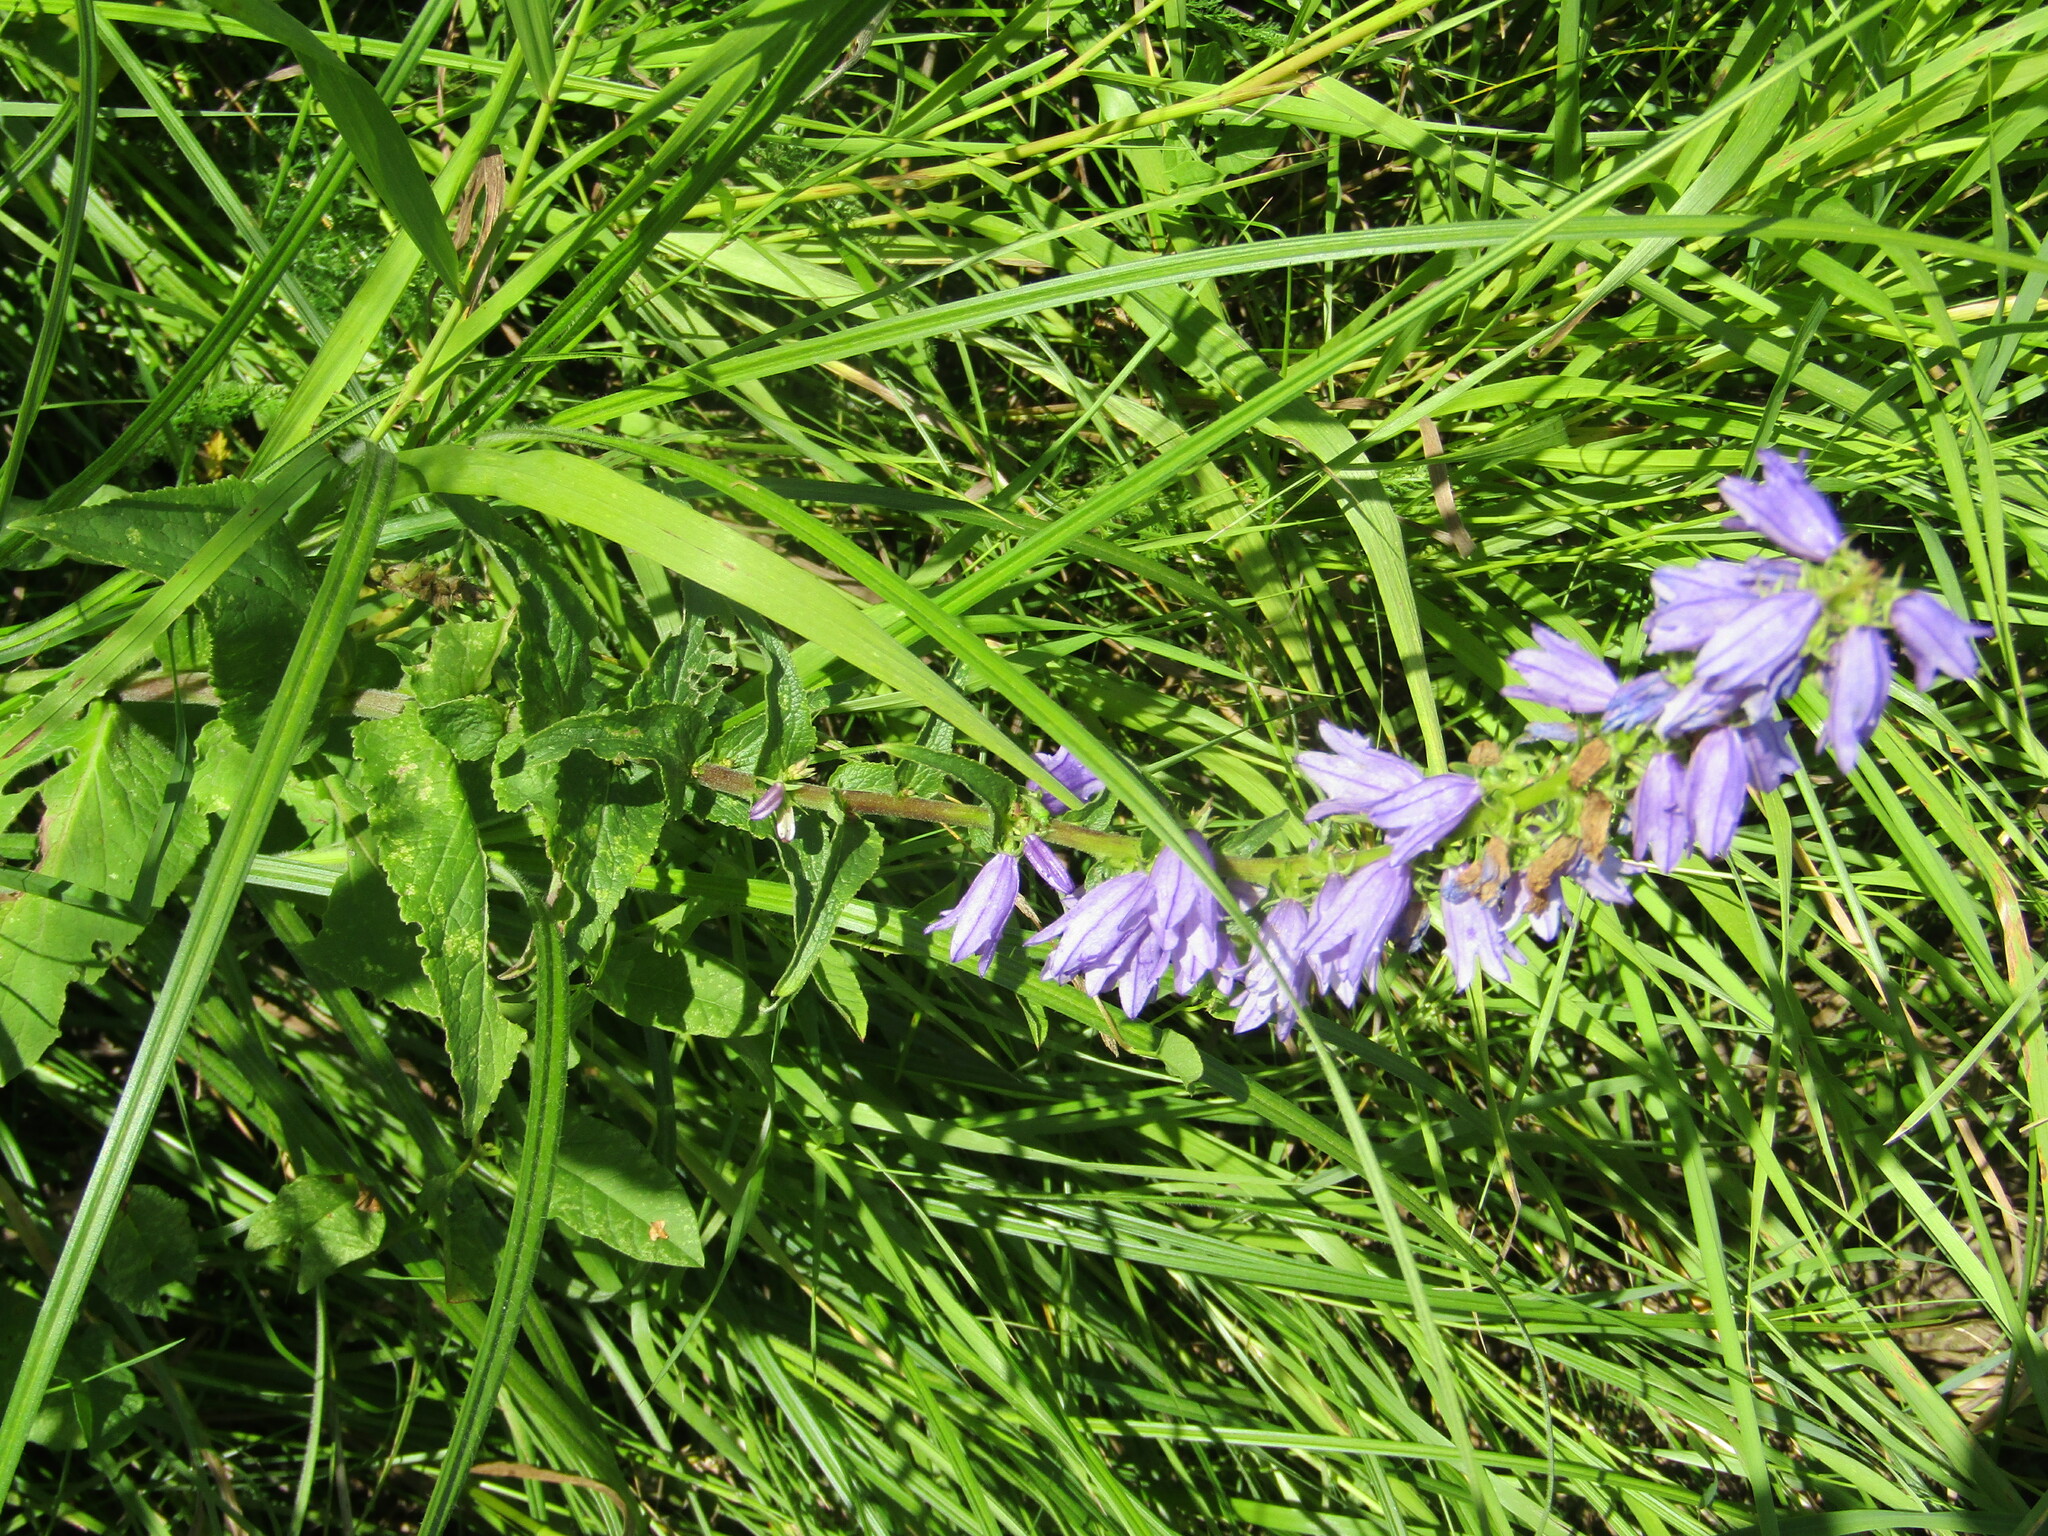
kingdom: Plantae
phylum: Tracheophyta
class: Magnoliopsida
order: Asterales
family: Campanulaceae
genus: Campanula
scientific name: Campanula bononiensis
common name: Pale bellflower
